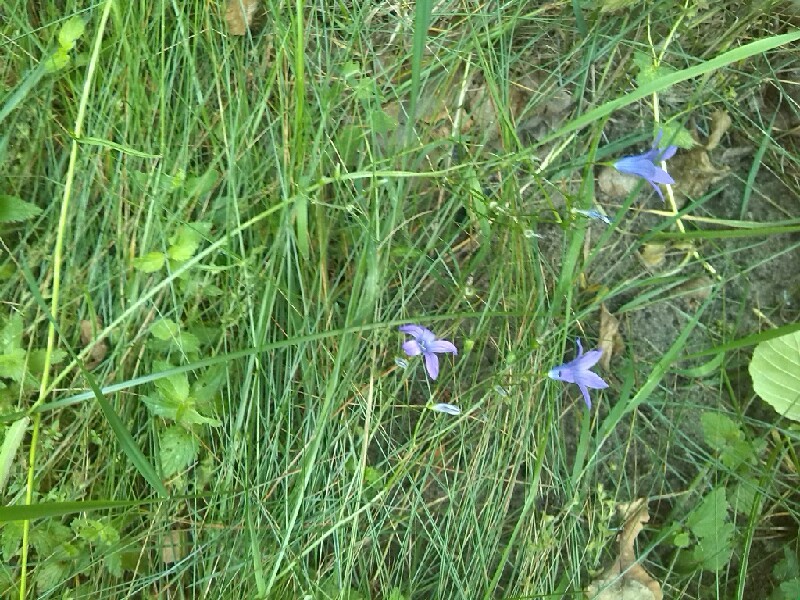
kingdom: Plantae
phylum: Tracheophyta
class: Magnoliopsida
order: Asterales
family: Campanulaceae
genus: Campanula
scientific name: Campanula patula
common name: Spreading bellflower
